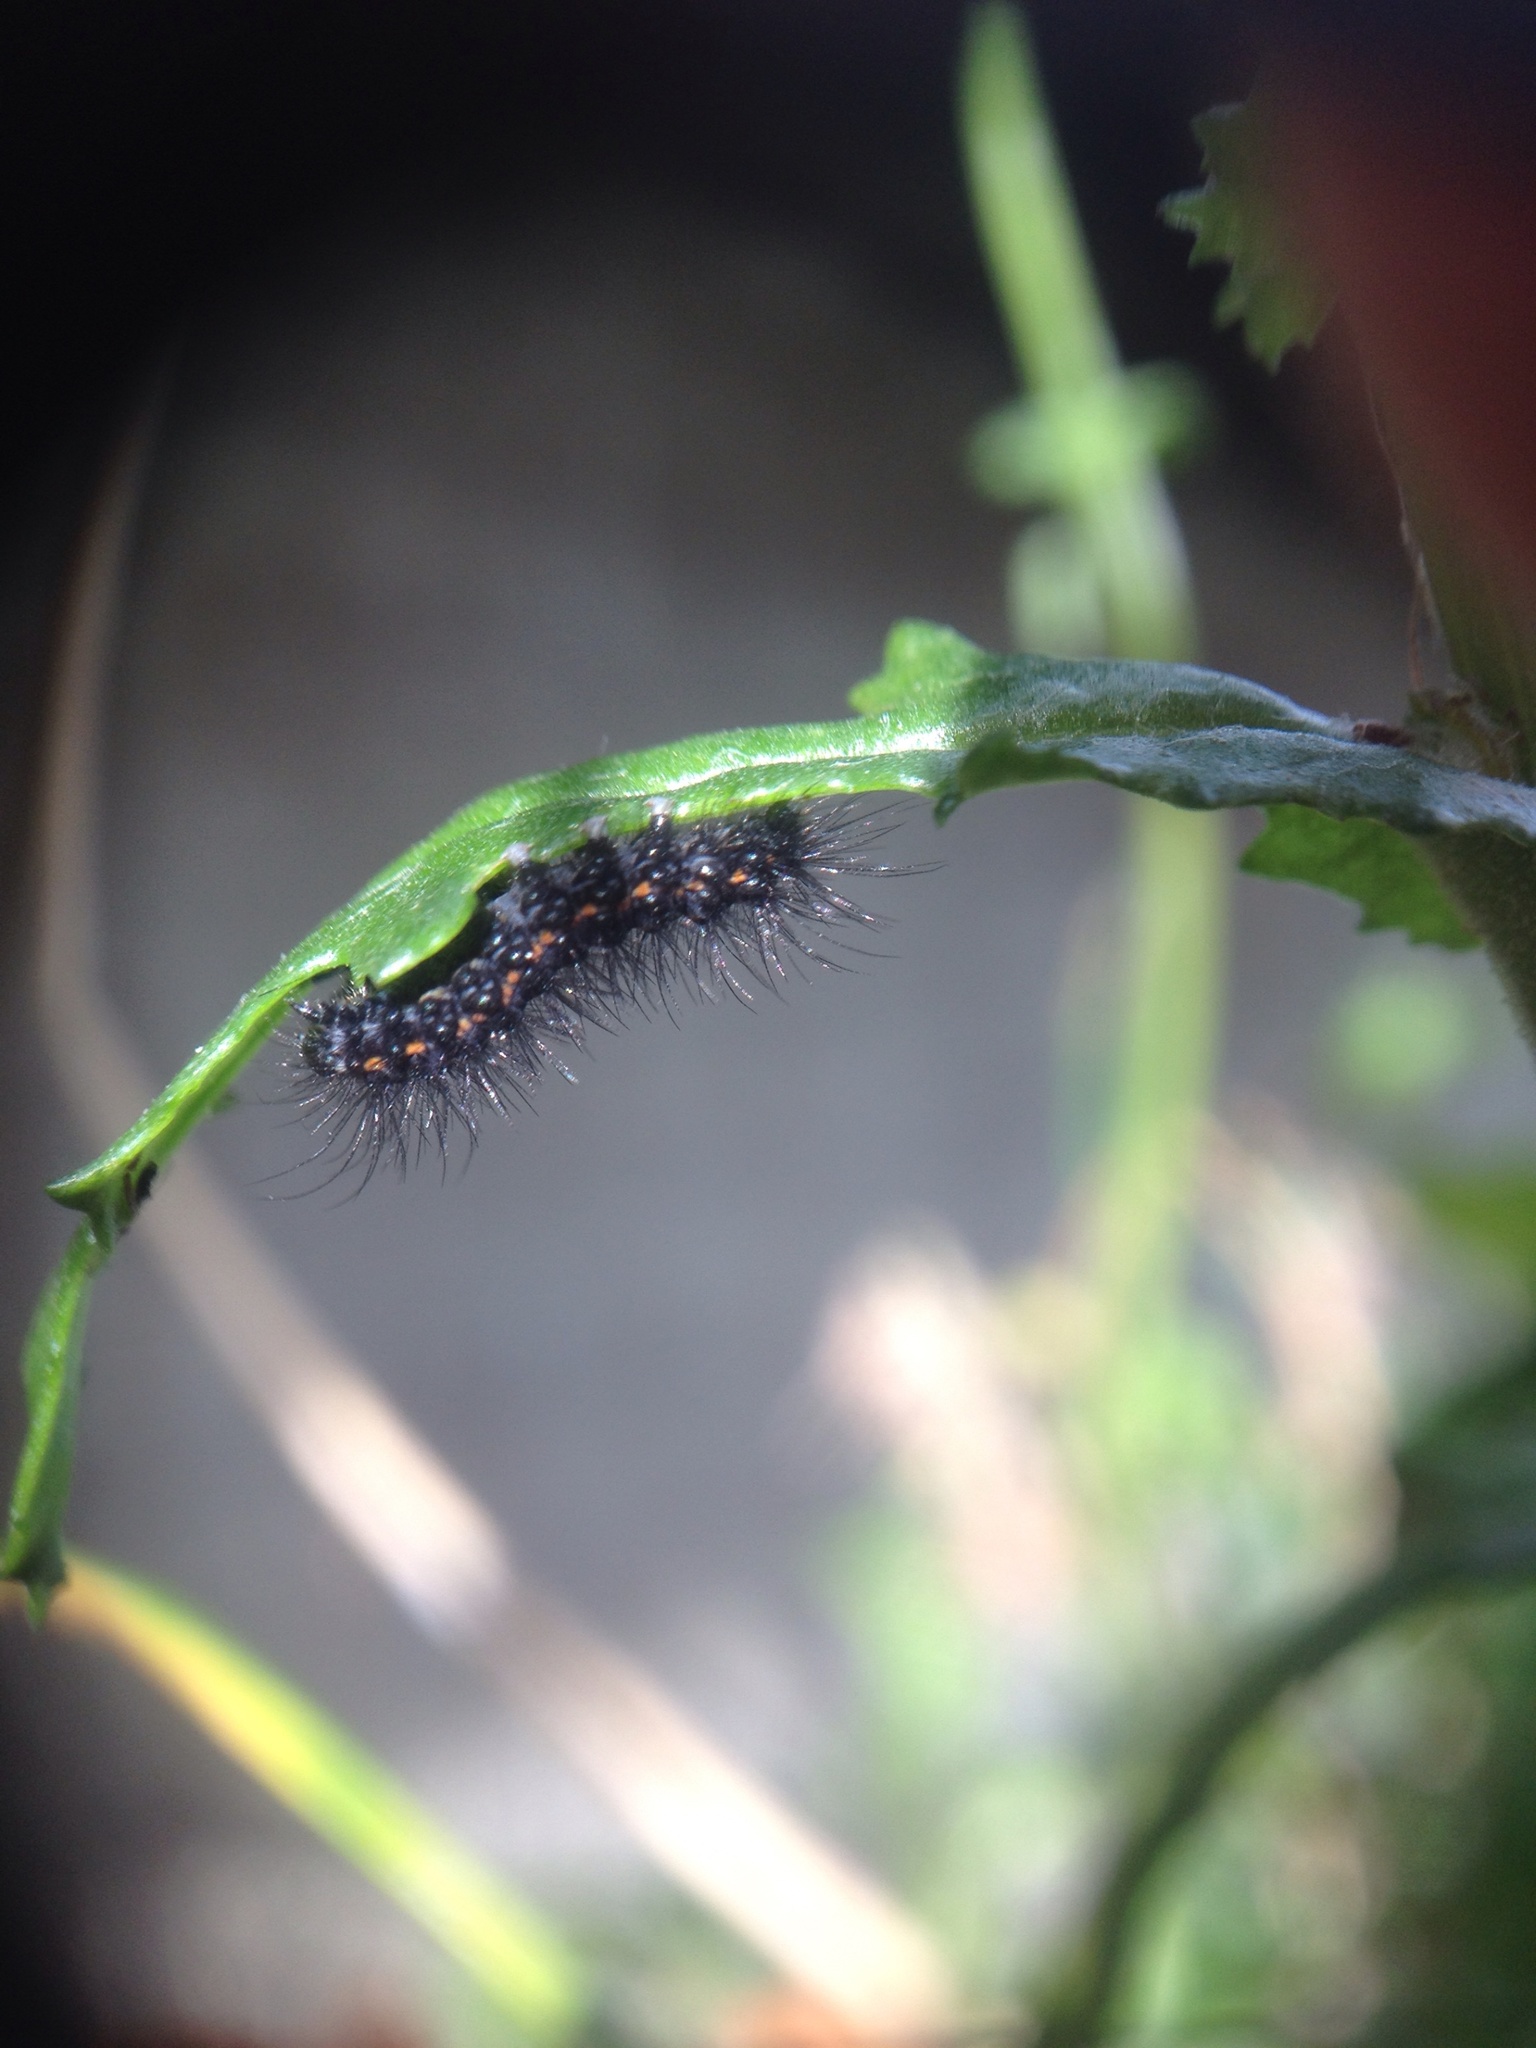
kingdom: Animalia
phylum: Arthropoda
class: Insecta
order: Lepidoptera
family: Erebidae
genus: Nyctemera
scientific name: Nyctemera annulatum
